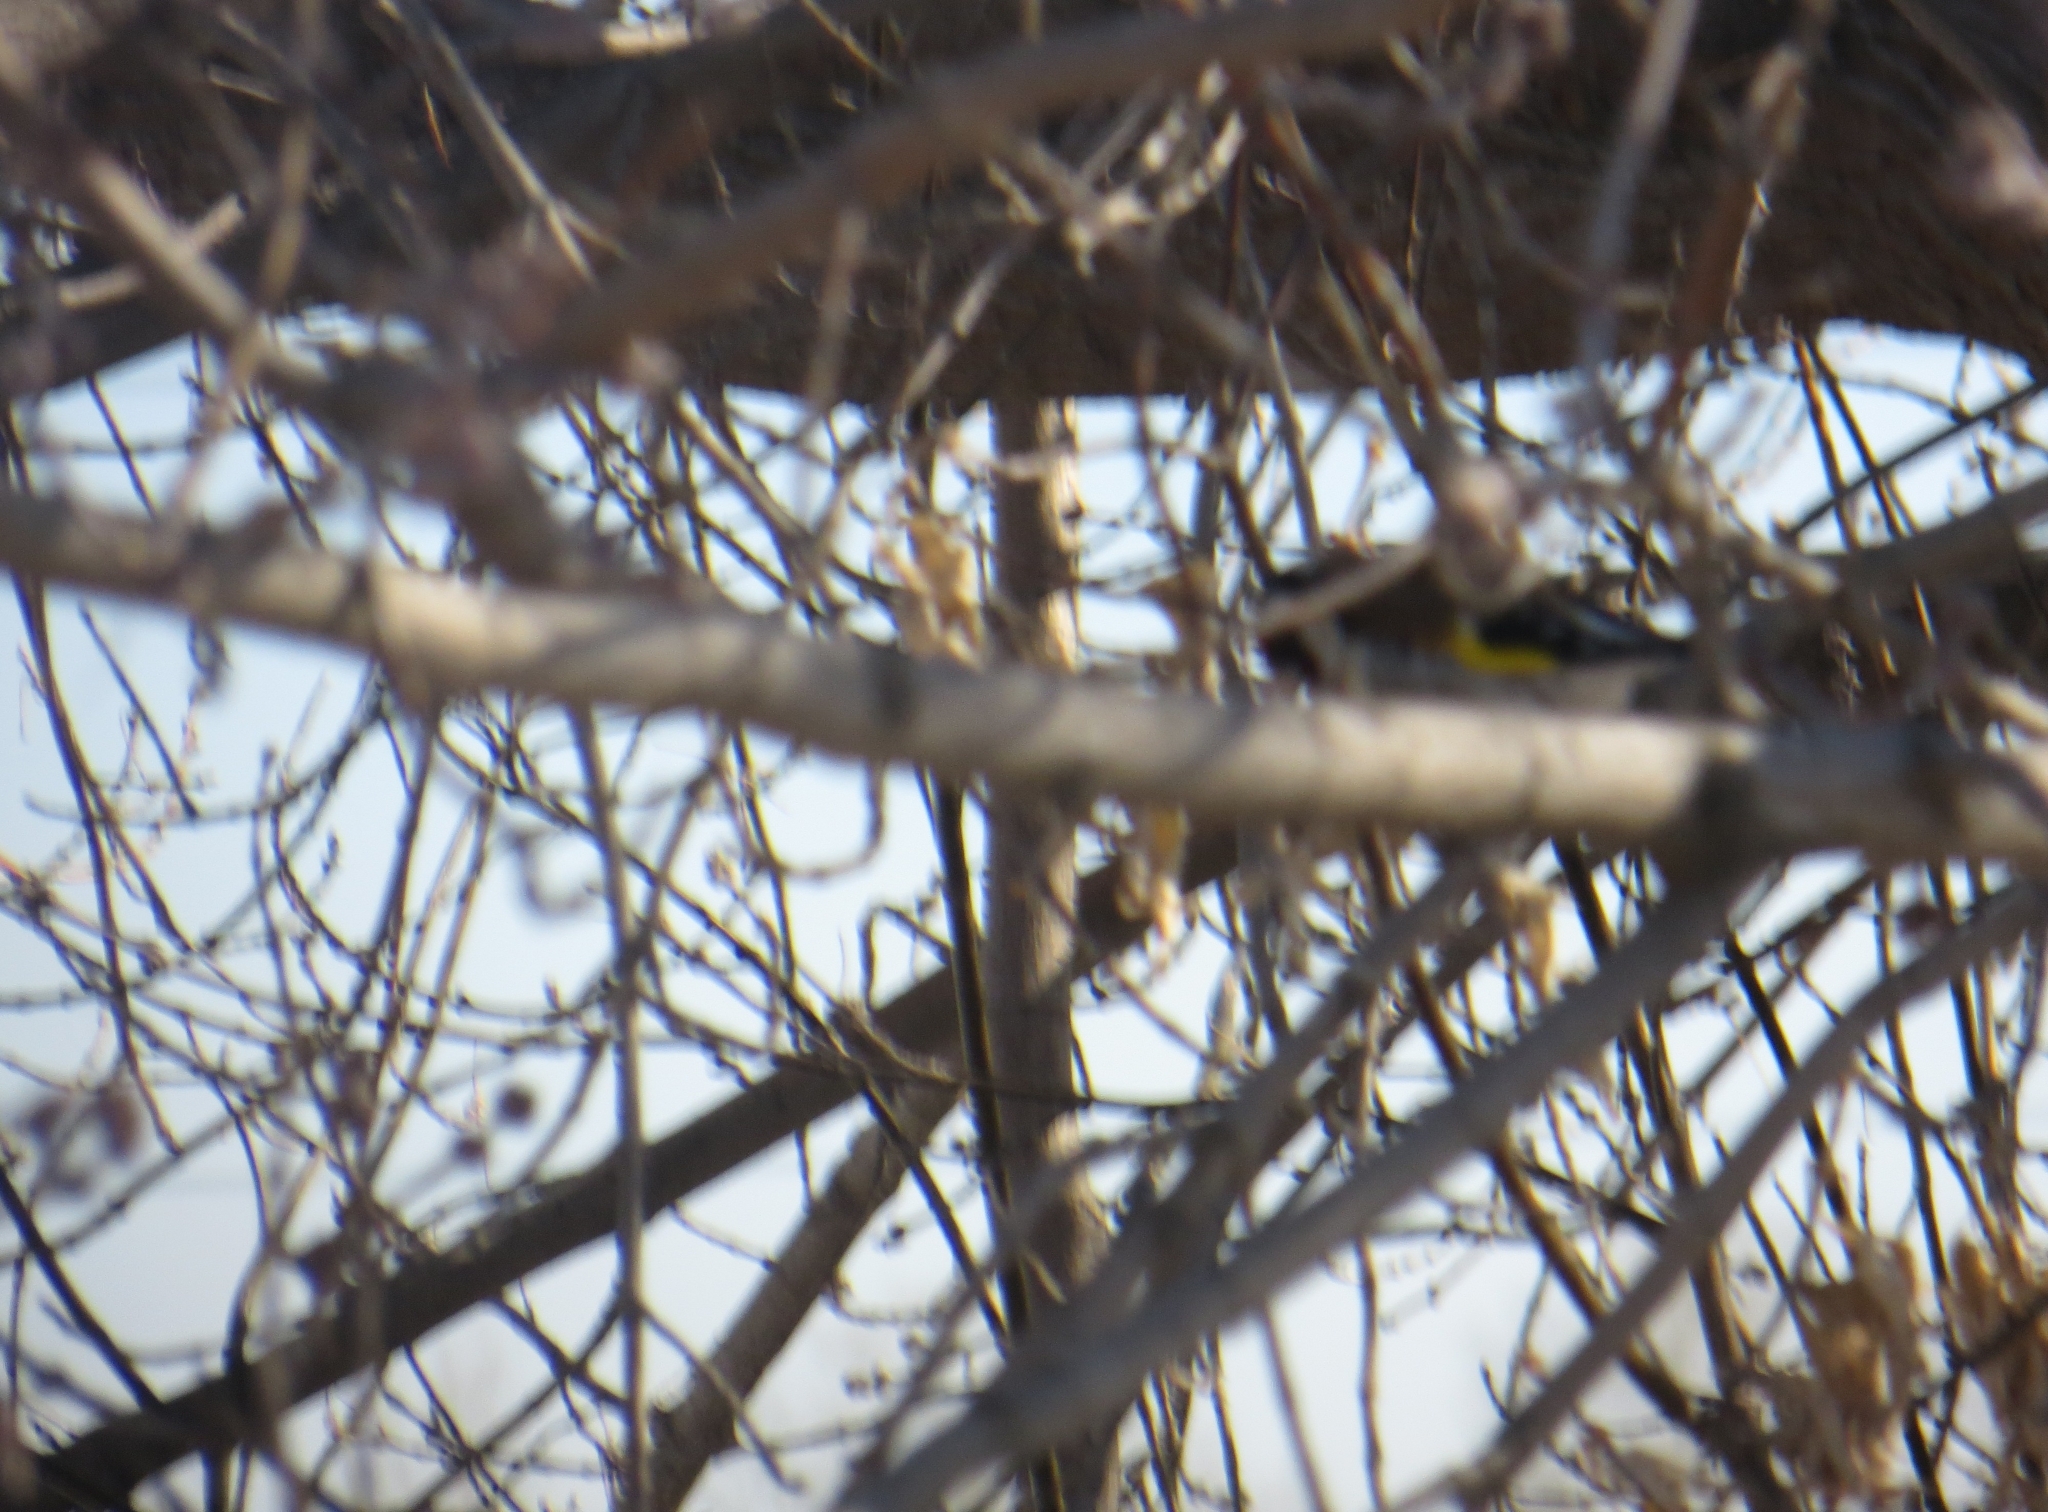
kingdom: Animalia
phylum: Chordata
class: Aves
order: Passeriformes
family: Fringillidae
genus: Carduelis
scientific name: Carduelis carduelis
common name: European goldfinch
